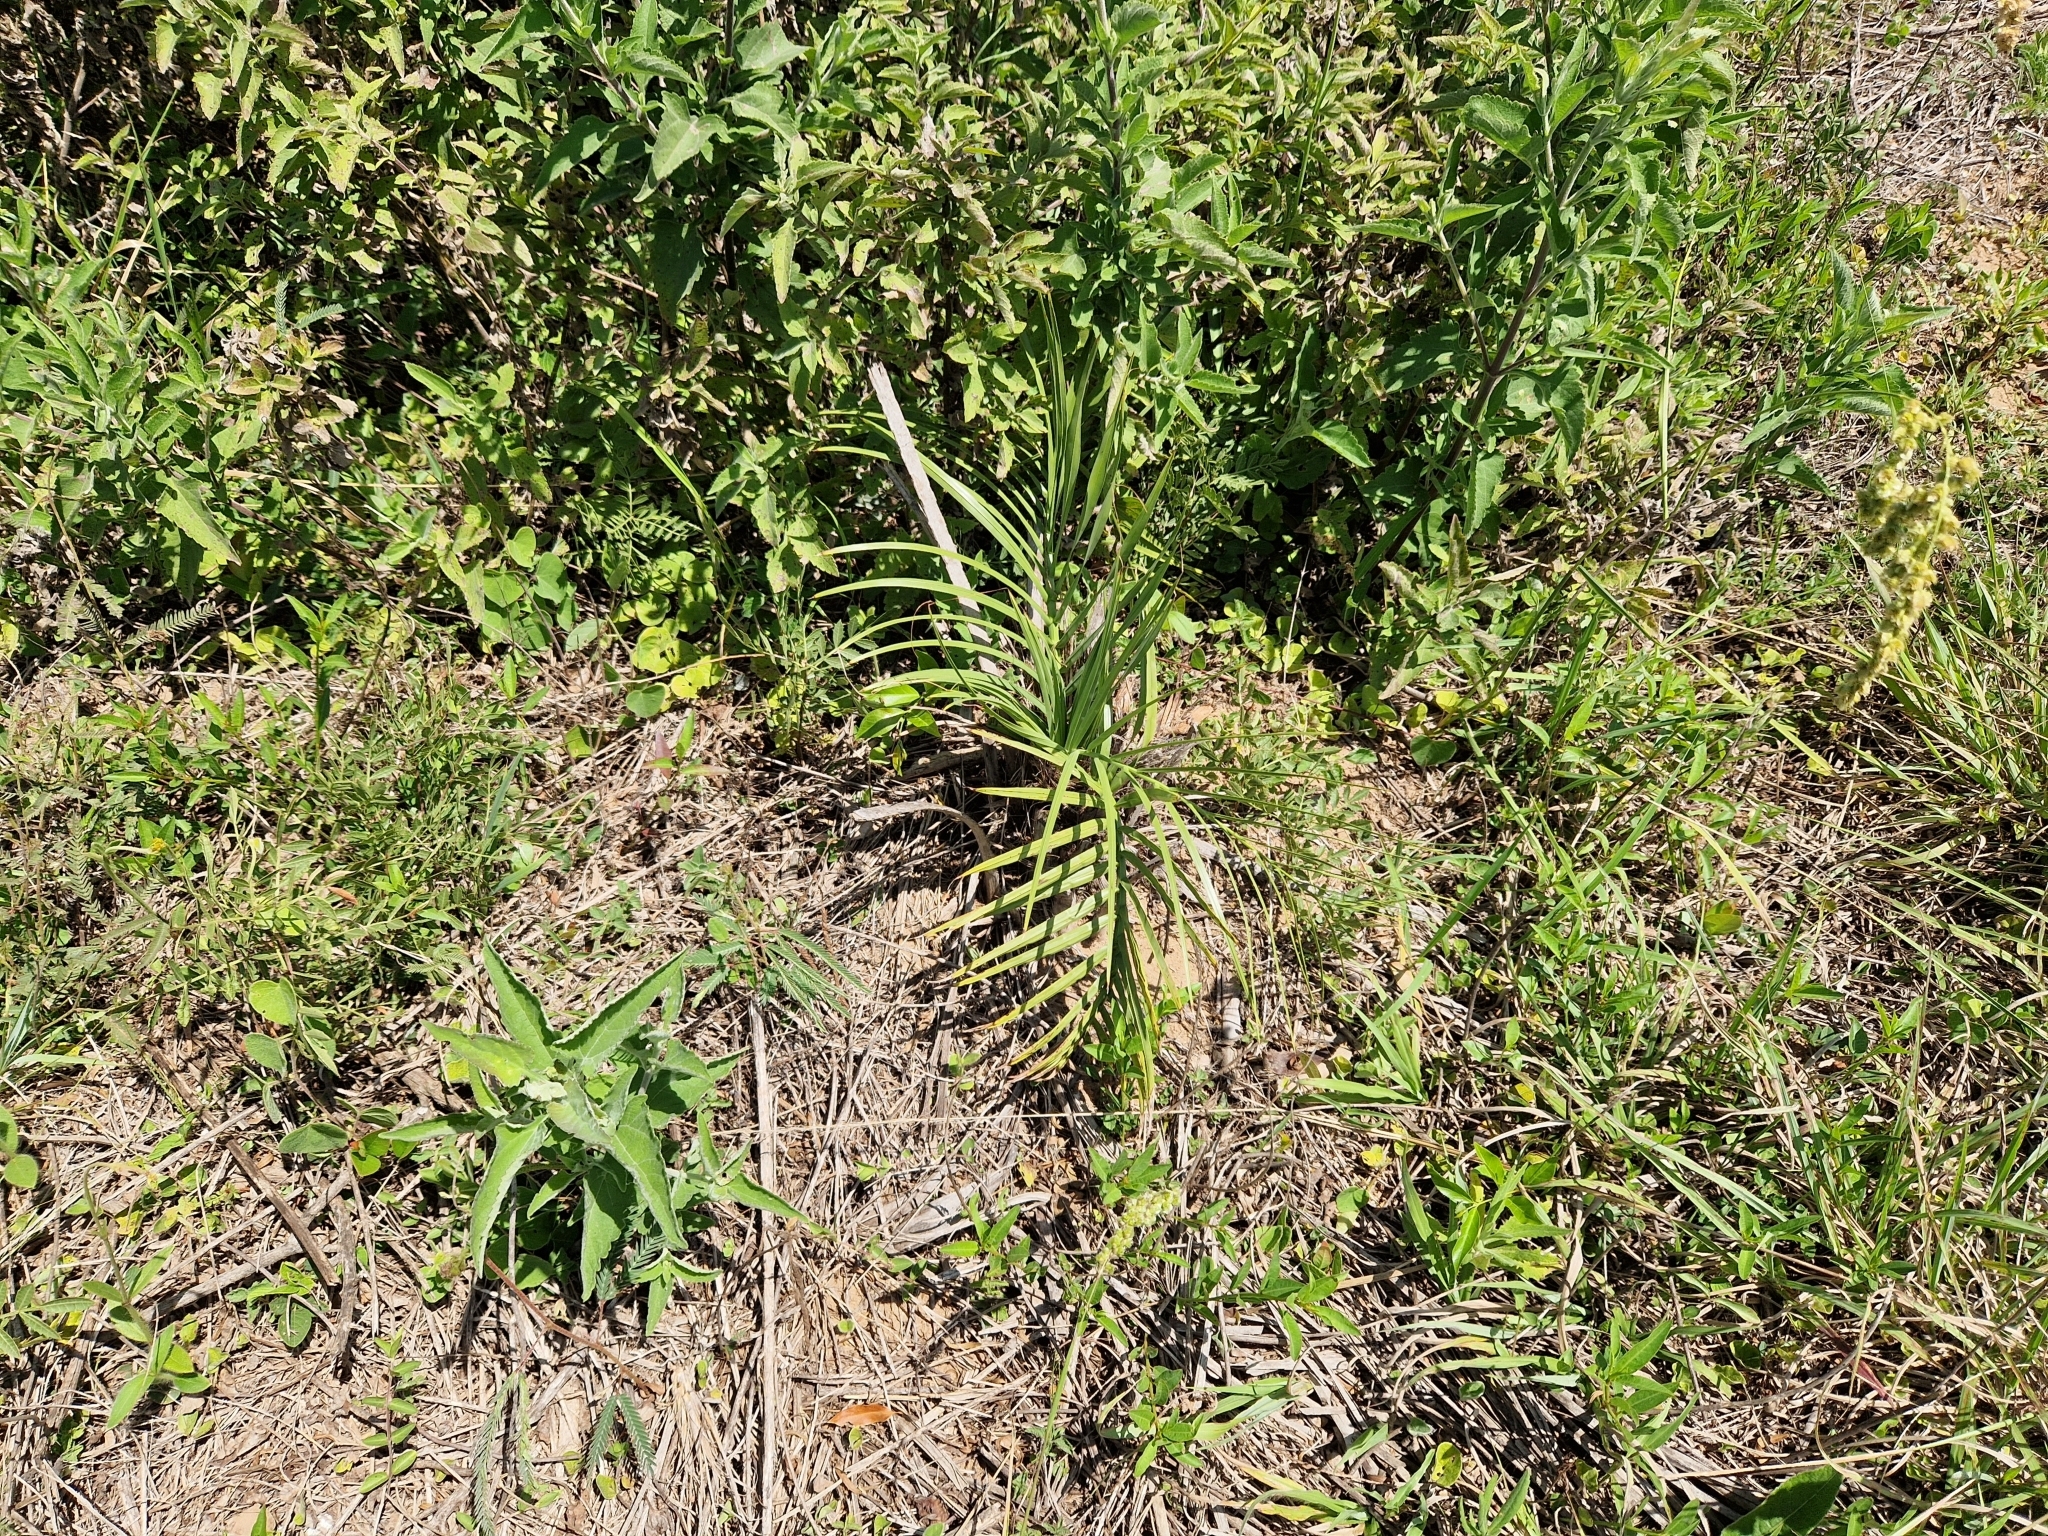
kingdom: Plantae
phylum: Tracheophyta
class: Liliopsida
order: Arecales
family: Arecaceae
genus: Butia
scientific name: Butia paraguayensis
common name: Dwarf yatay palm
